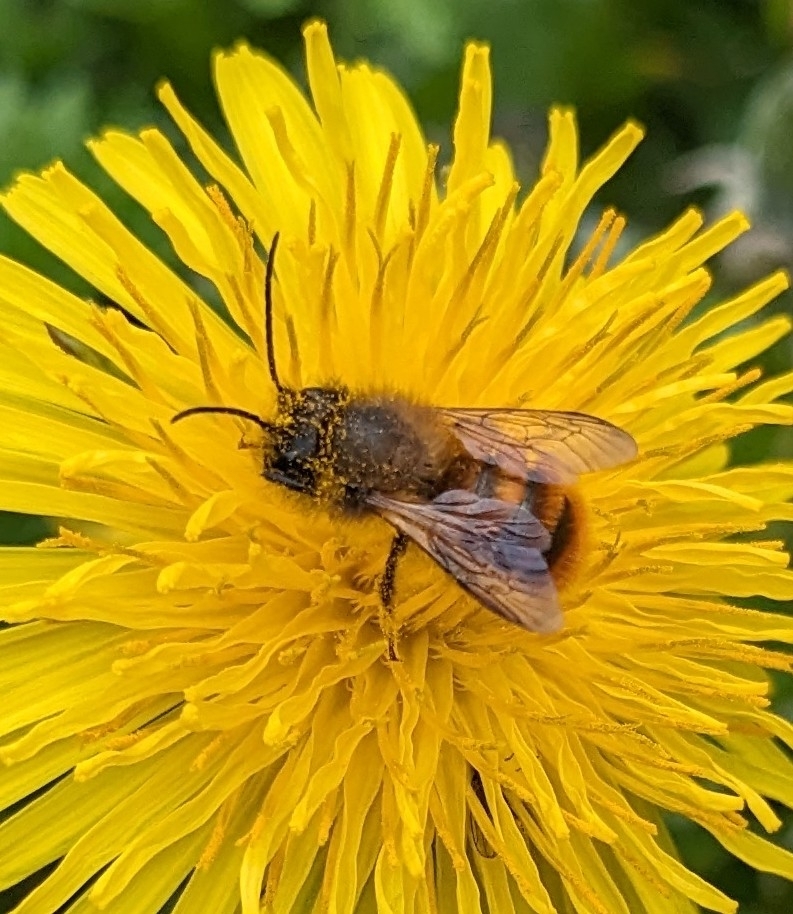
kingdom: Animalia
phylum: Arthropoda
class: Insecta
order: Hymenoptera
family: Megachilidae
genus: Osmia
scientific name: Osmia bicornis
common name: Red mason bee
